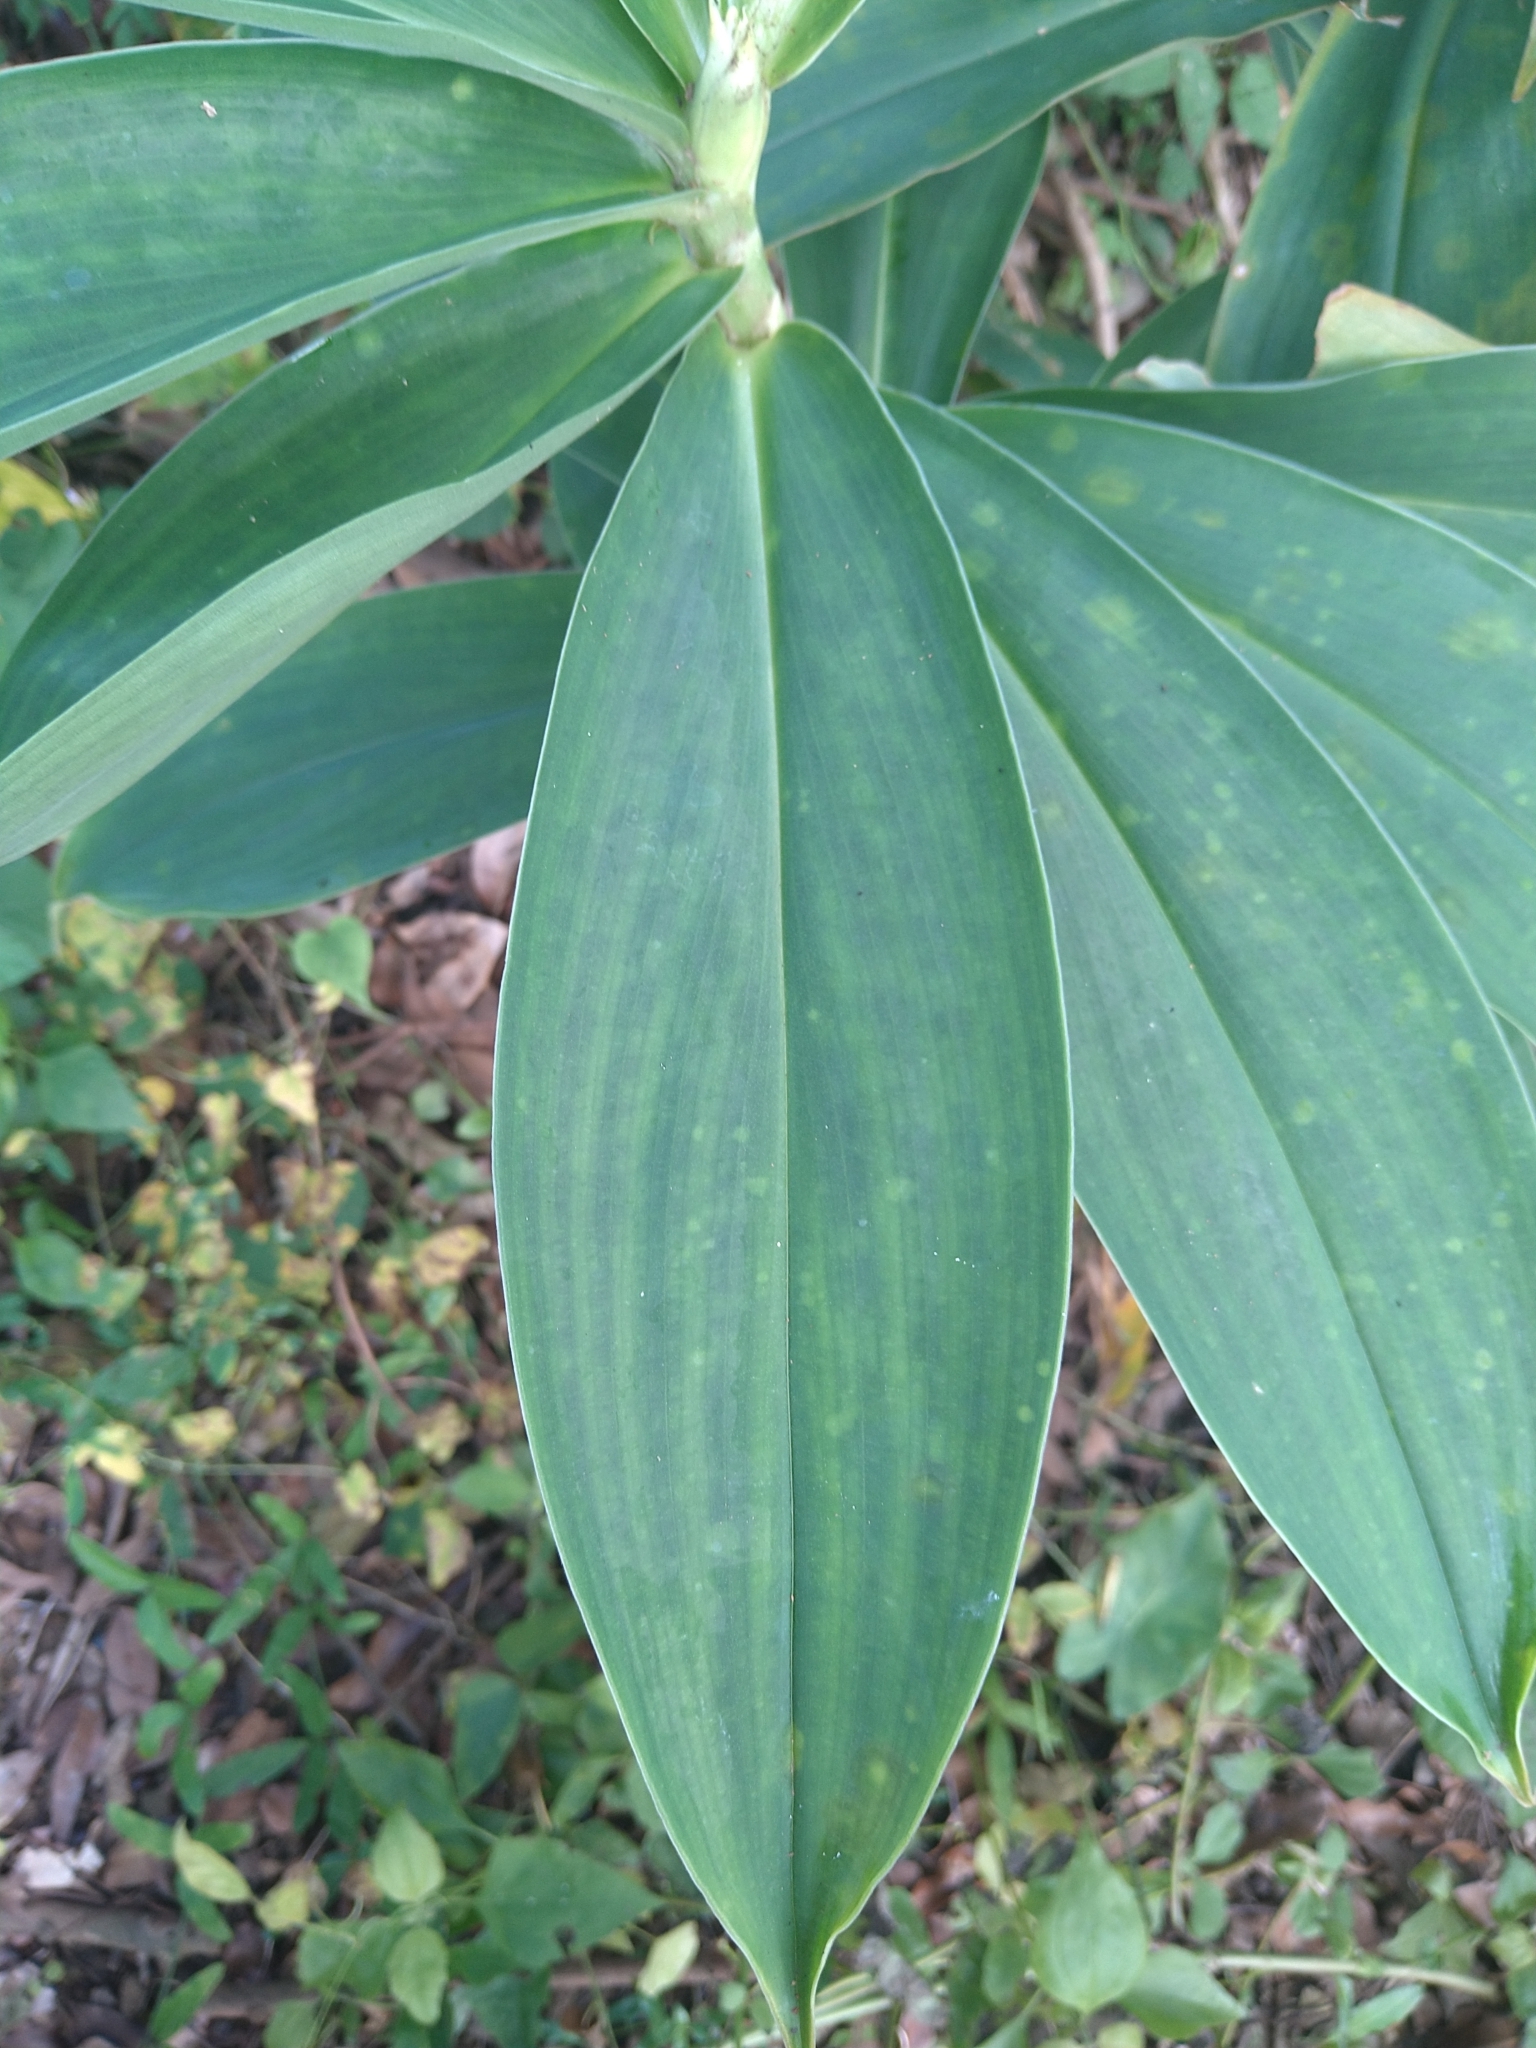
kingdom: Plantae
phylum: Tracheophyta
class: Liliopsida
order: Zingiberales
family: Costaceae
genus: Hellenia
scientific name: Hellenia speciosa
